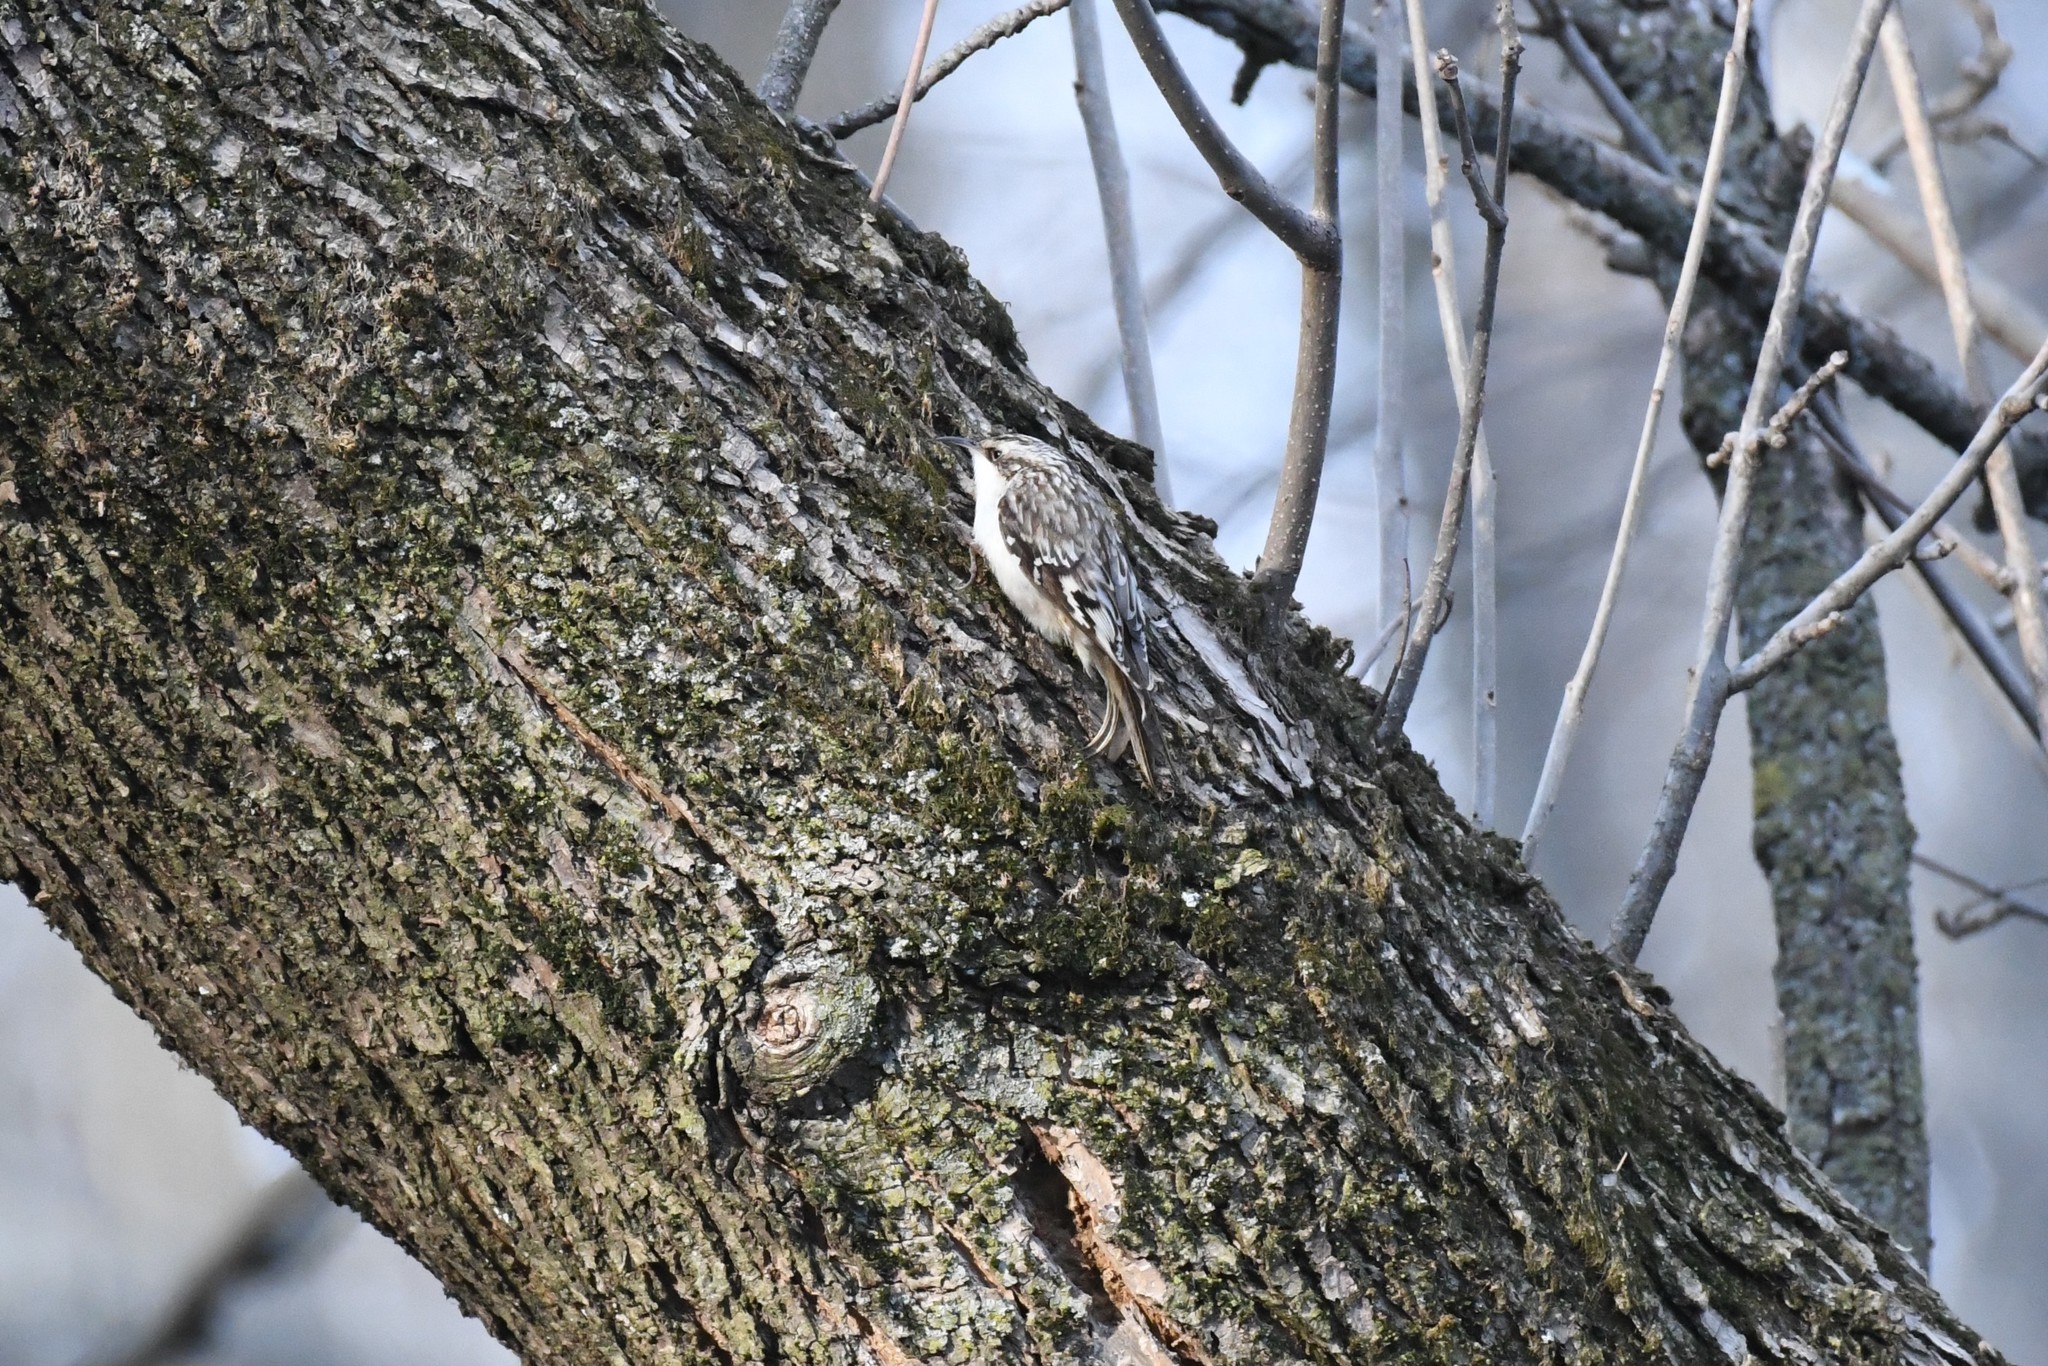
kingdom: Animalia
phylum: Chordata
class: Aves
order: Passeriformes
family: Certhiidae
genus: Certhia
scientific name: Certhia americana
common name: Brown creeper
